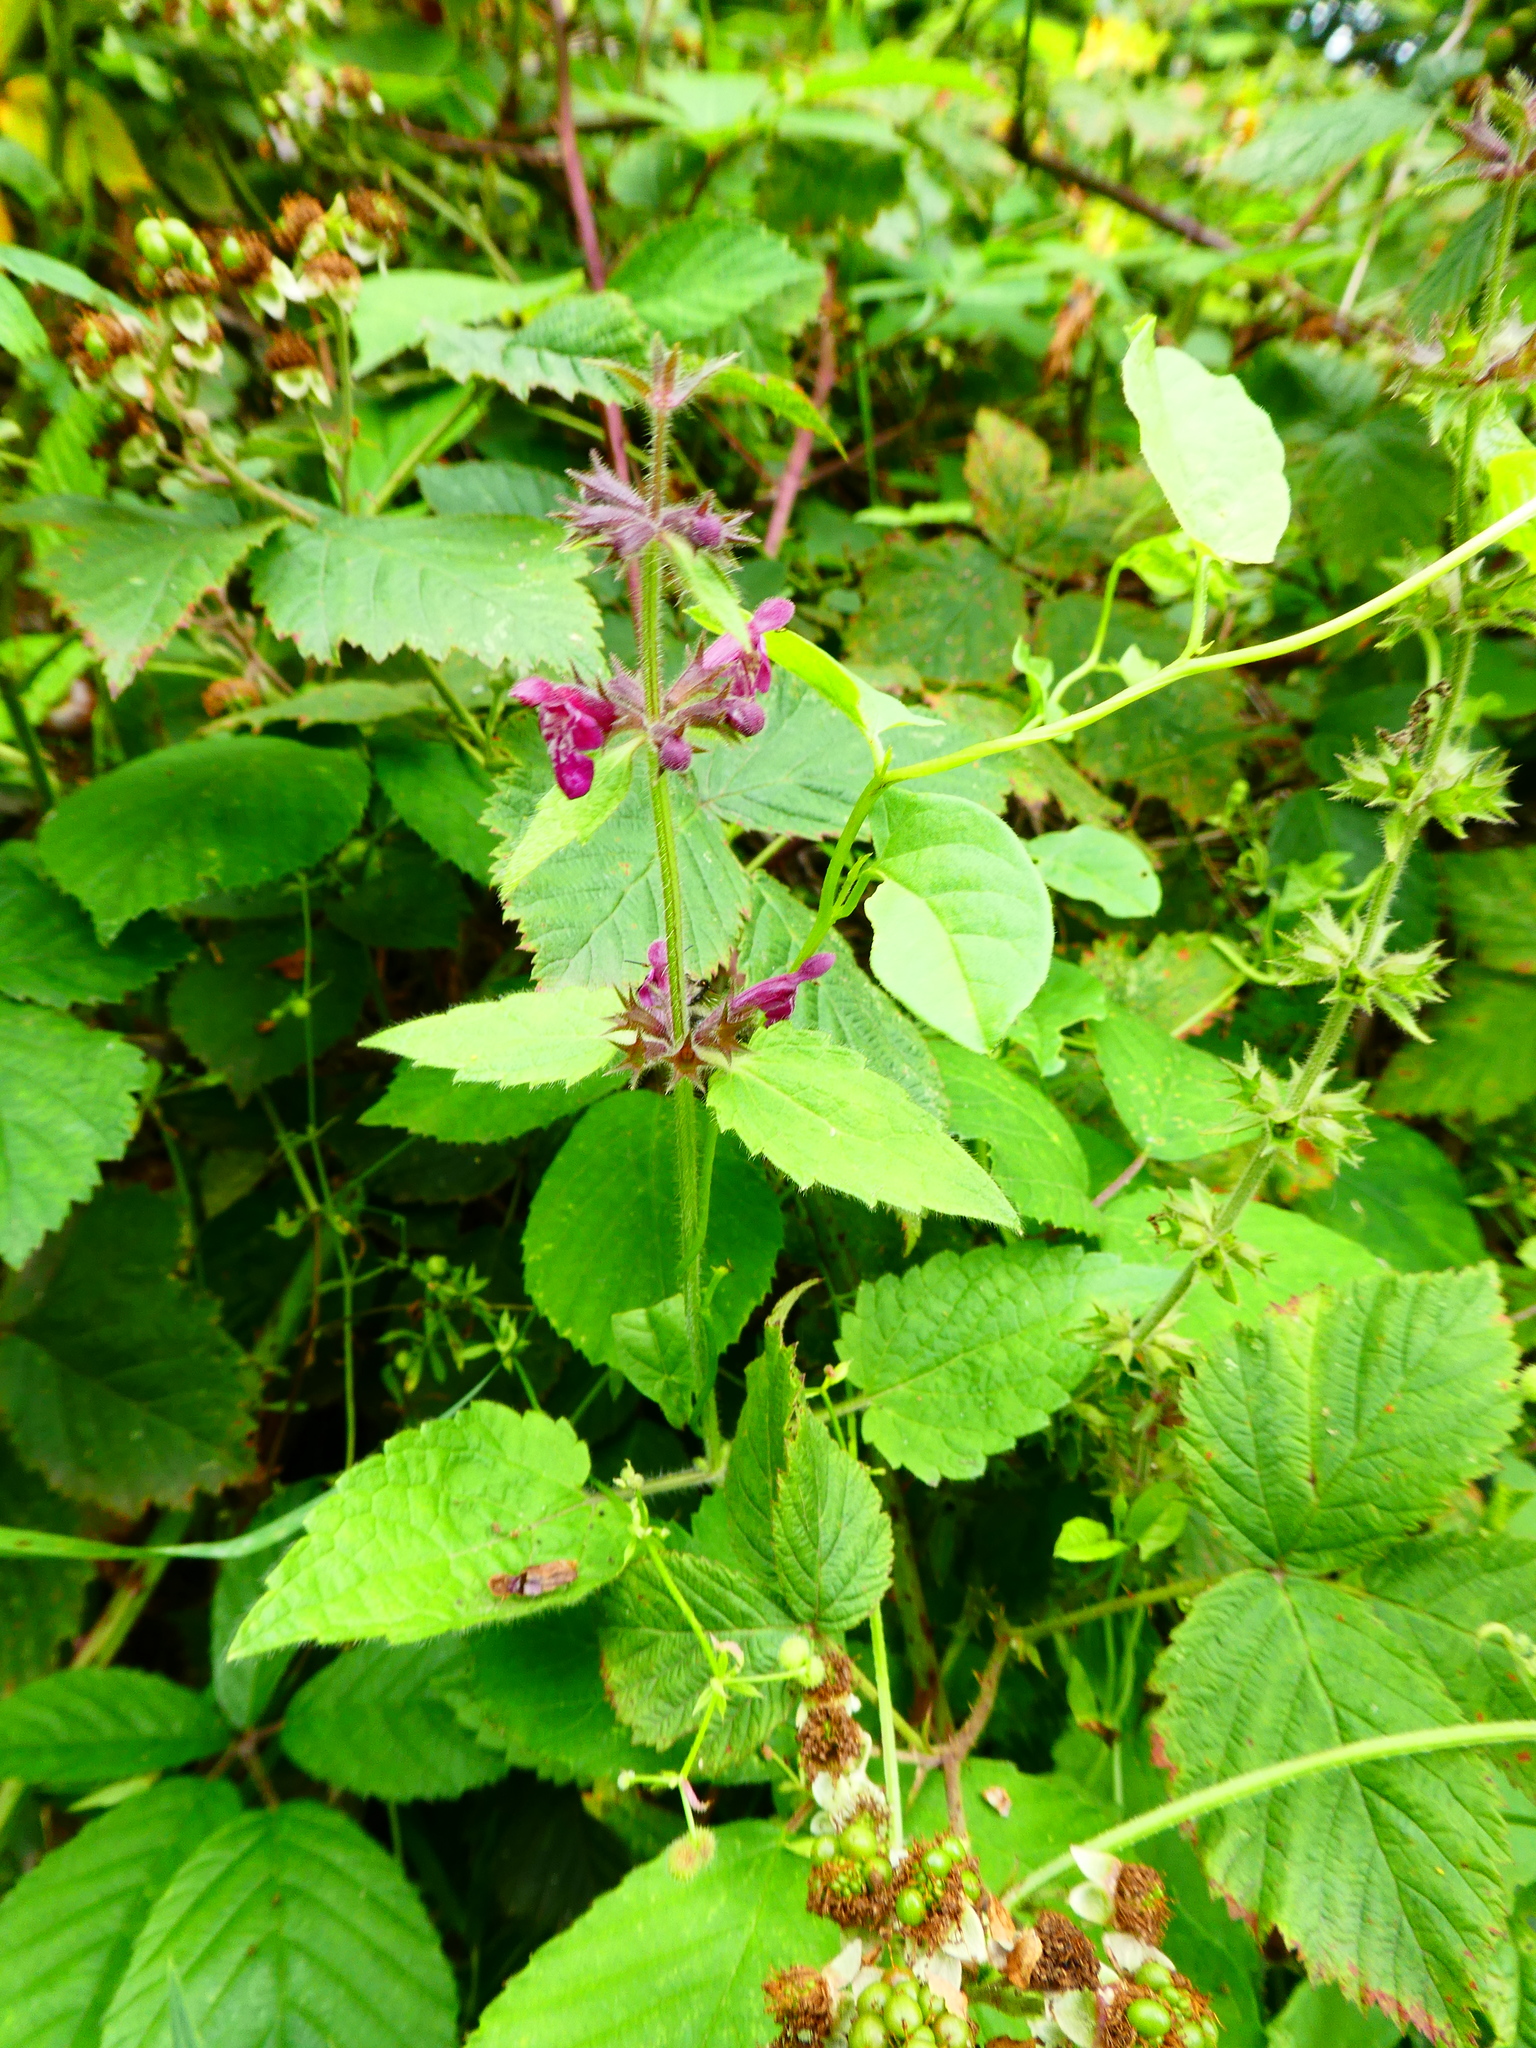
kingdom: Plantae
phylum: Tracheophyta
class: Magnoliopsida
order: Lamiales
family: Lamiaceae
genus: Stachys
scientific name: Stachys sylvatica
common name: Hedge woundwort
